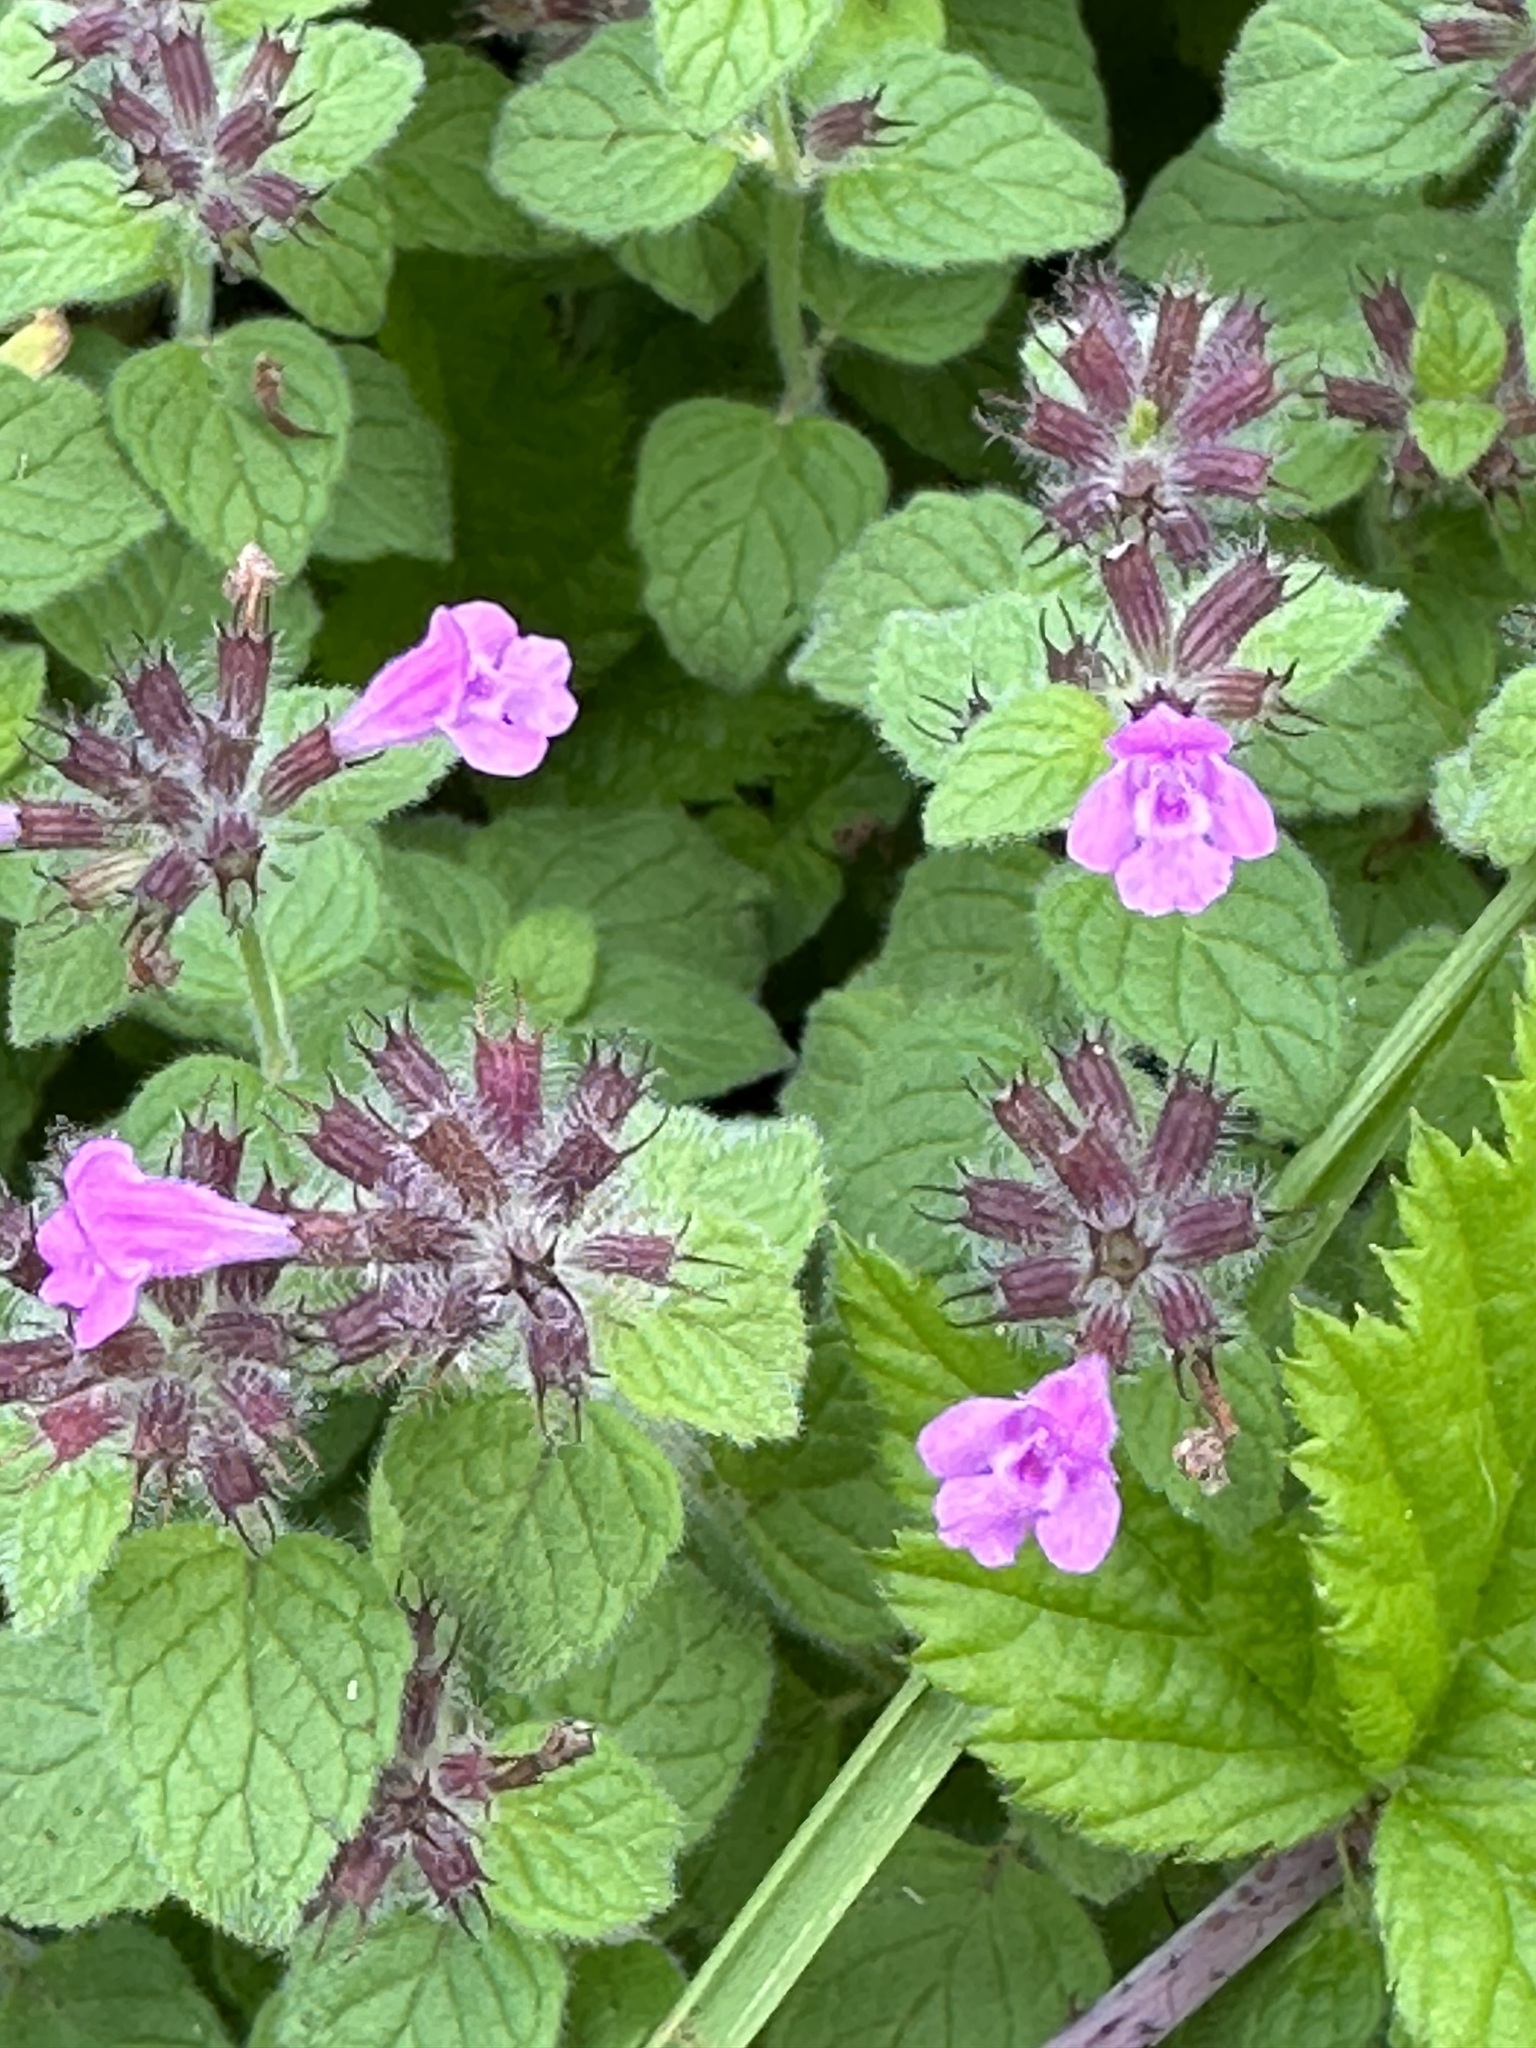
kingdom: Plantae
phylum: Tracheophyta
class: Magnoliopsida
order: Lamiales
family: Lamiaceae
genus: Clinopodium
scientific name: Clinopodium vulgare
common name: Wild basil
